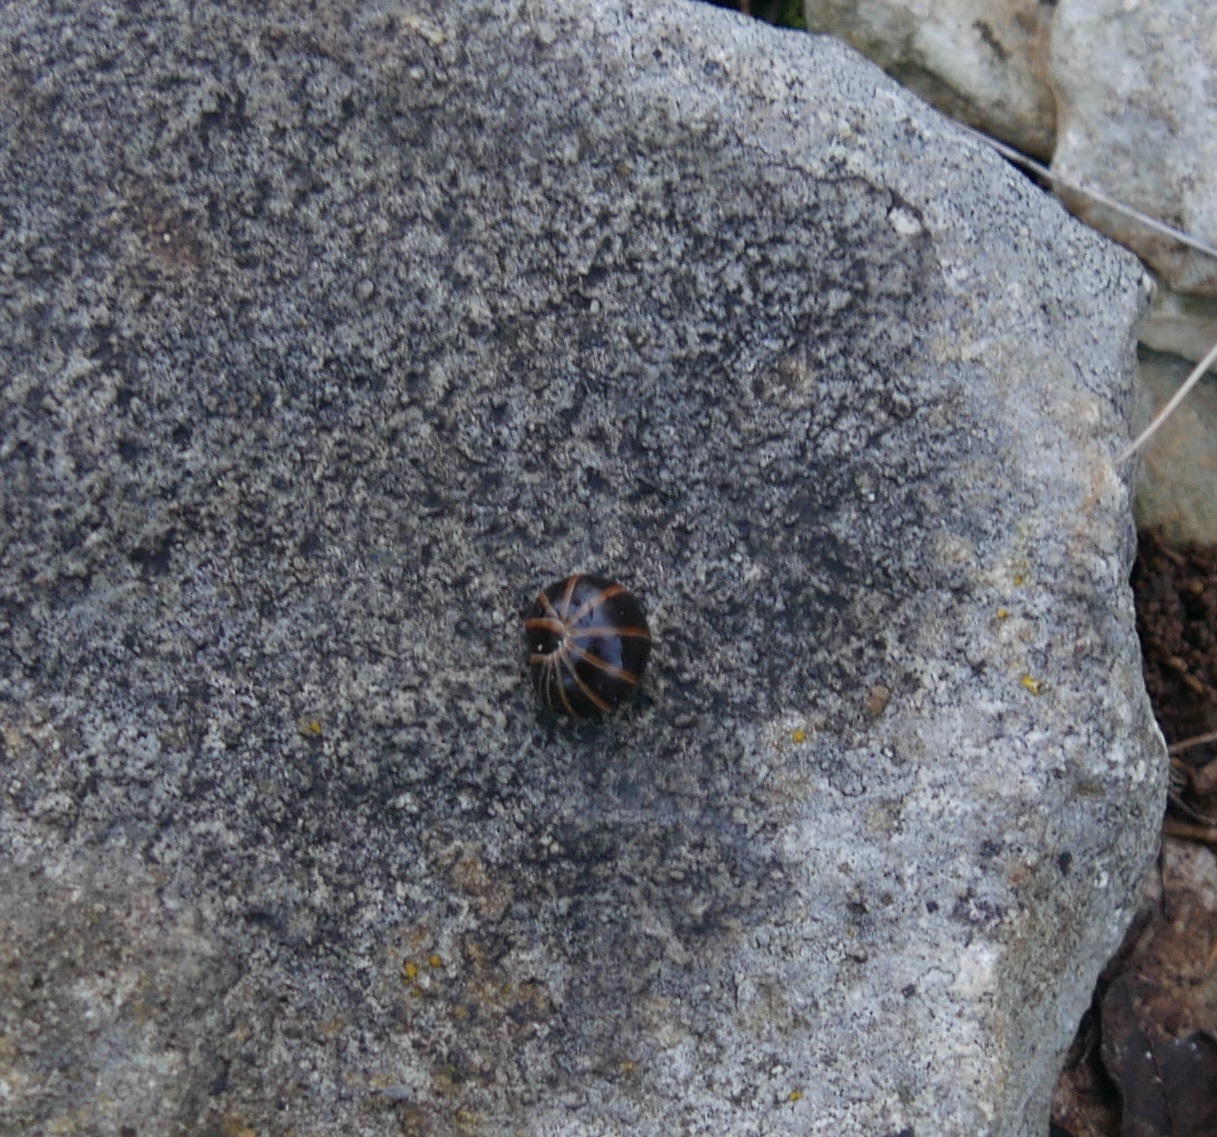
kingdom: Animalia
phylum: Arthropoda
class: Diplopoda
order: Glomerida
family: Glomeridae
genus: Glomeris
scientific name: Glomeris marginata
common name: Bordered pill millipede
